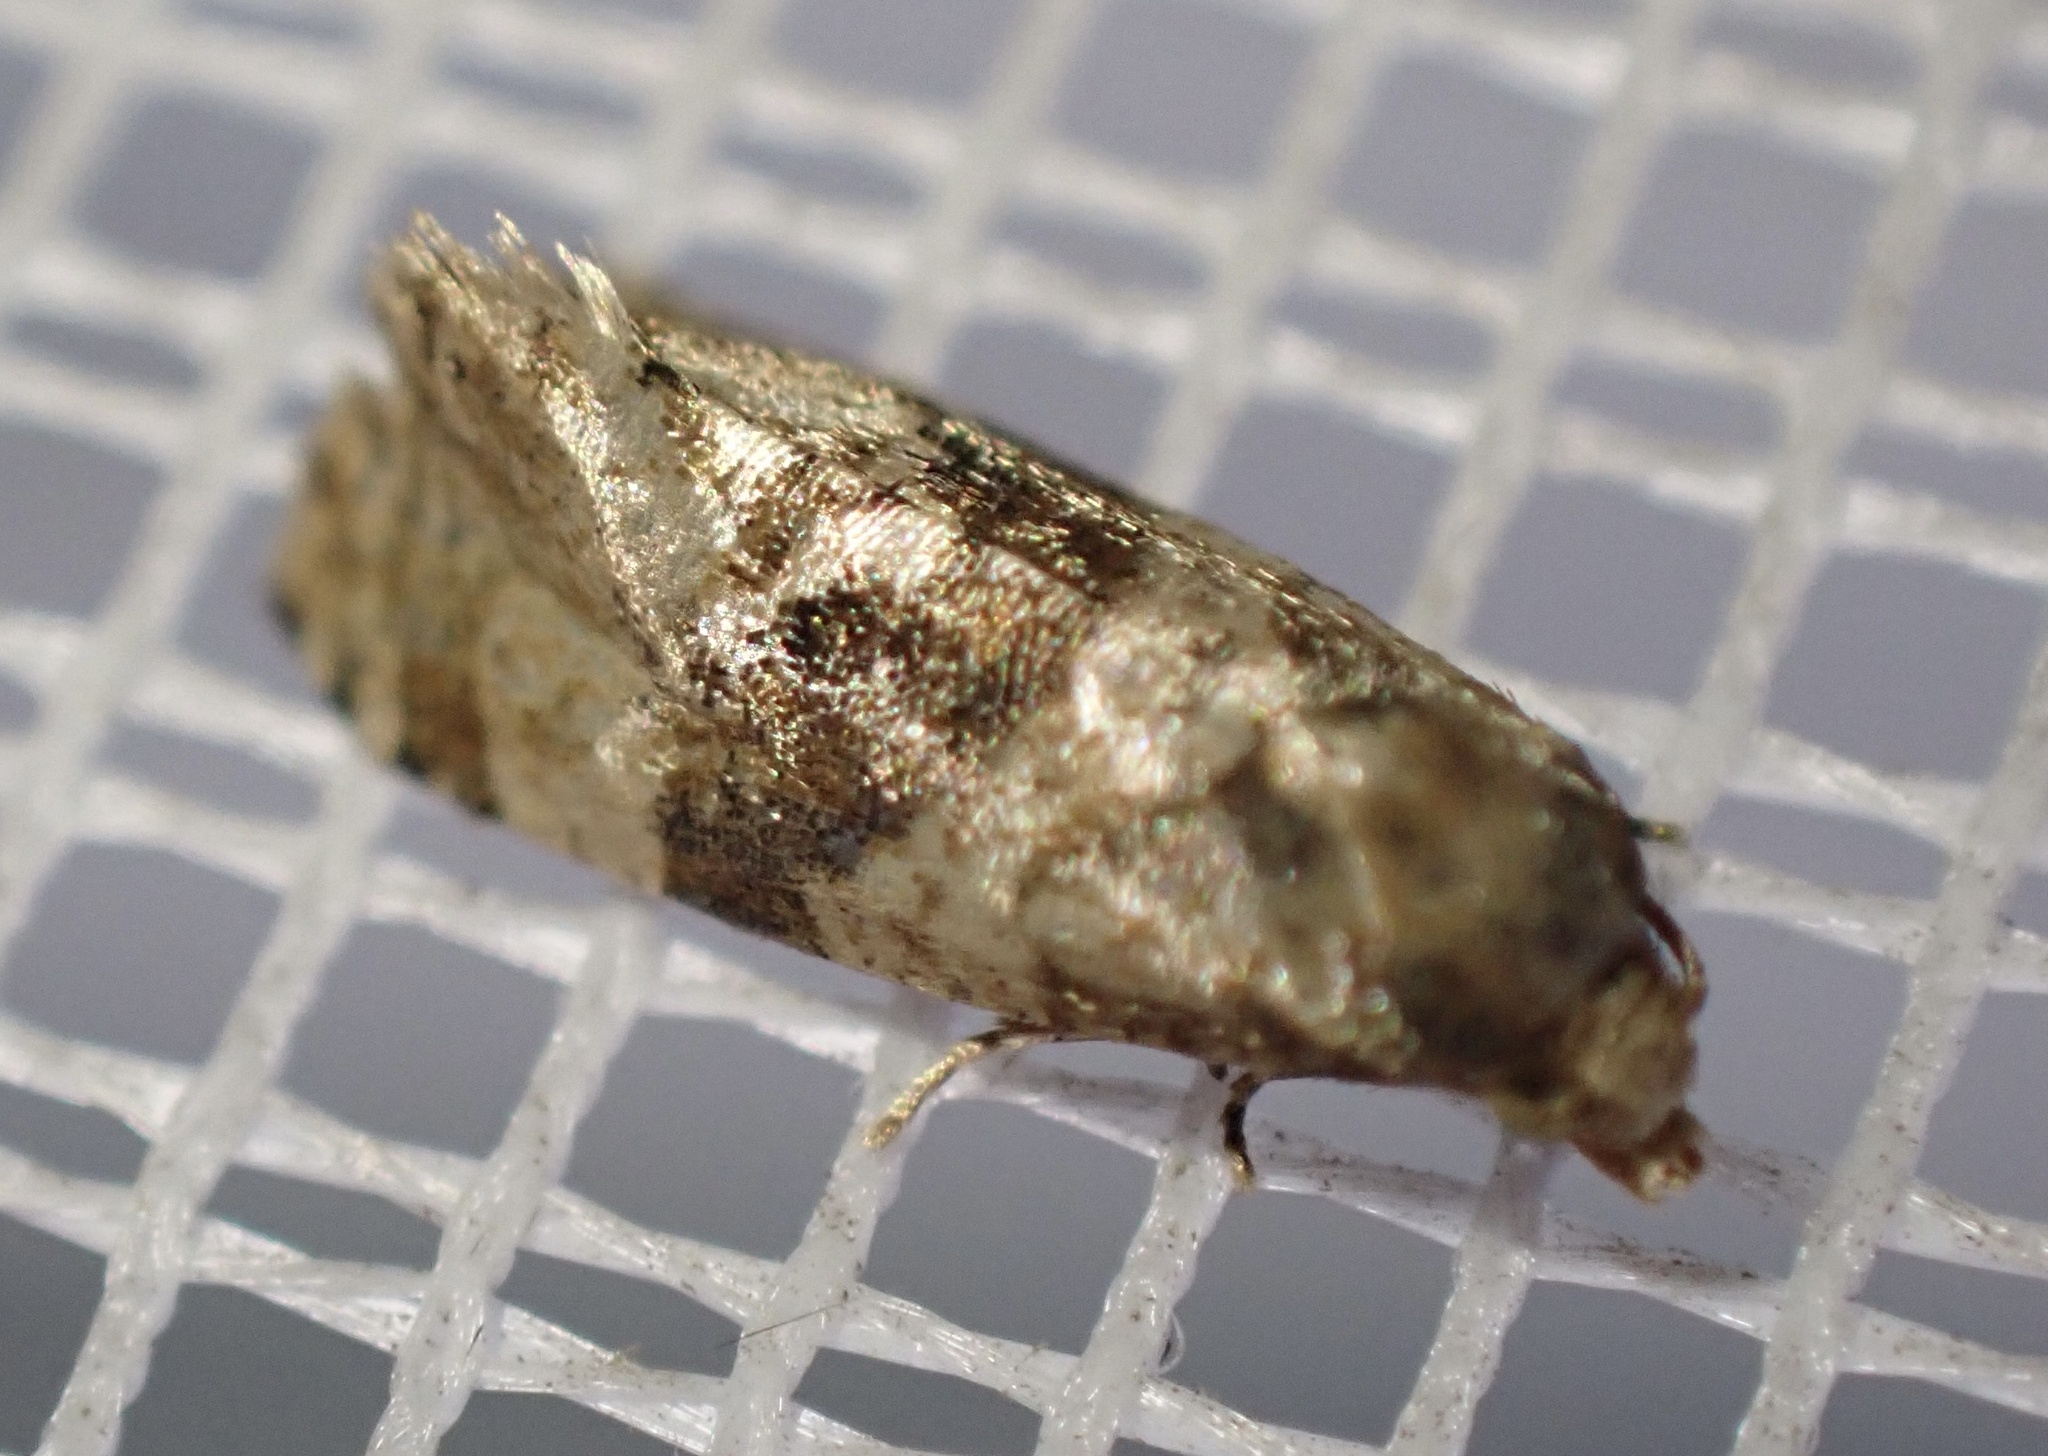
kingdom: Animalia
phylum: Arthropoda
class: Insecta
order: Lepidoptera
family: Tortricidae
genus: Phalonidia
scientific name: Phalonidia manniana
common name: Water-mint conch
